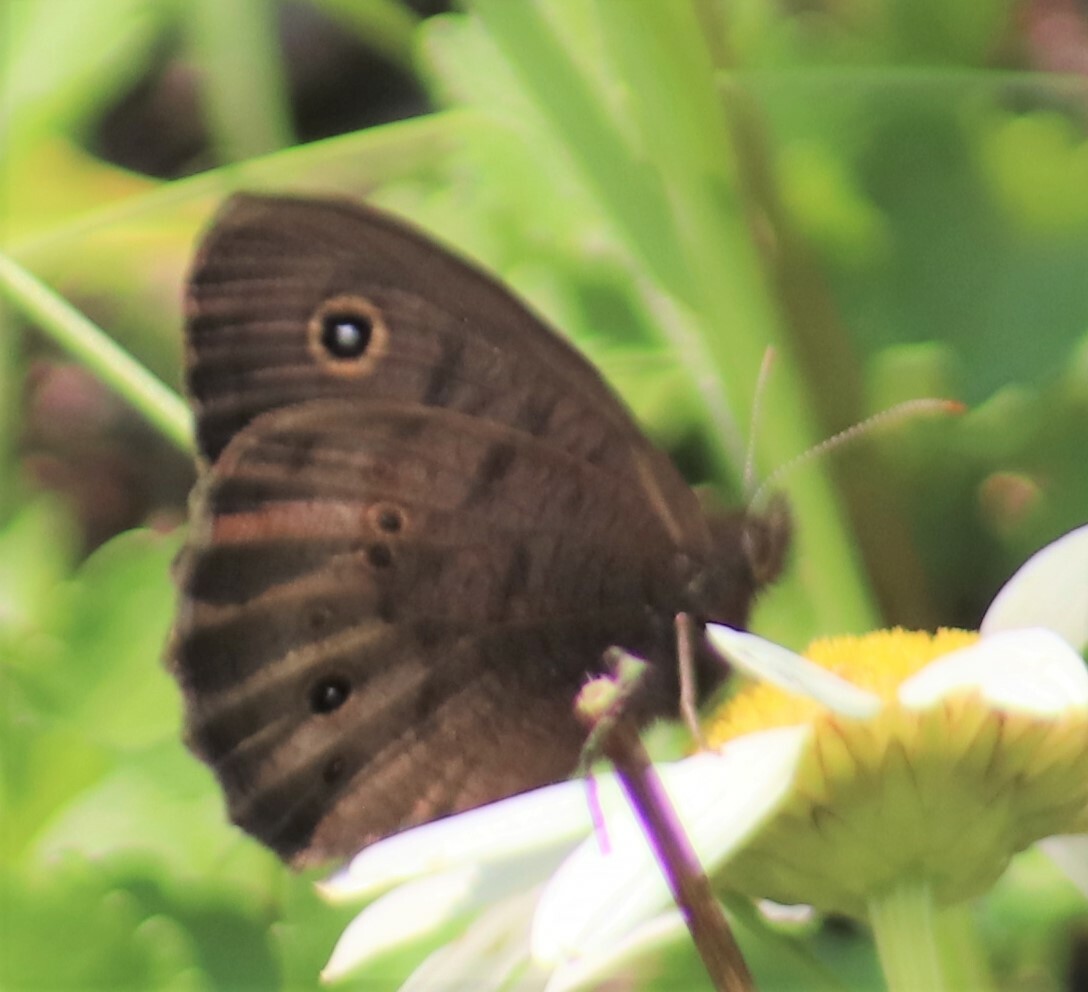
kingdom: Animalia
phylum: Arthropoda
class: Insecta
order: Lepidoptera
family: Nymphalidae
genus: Cercyonis
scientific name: Cercyonis pegala
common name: Common wood-nymph
